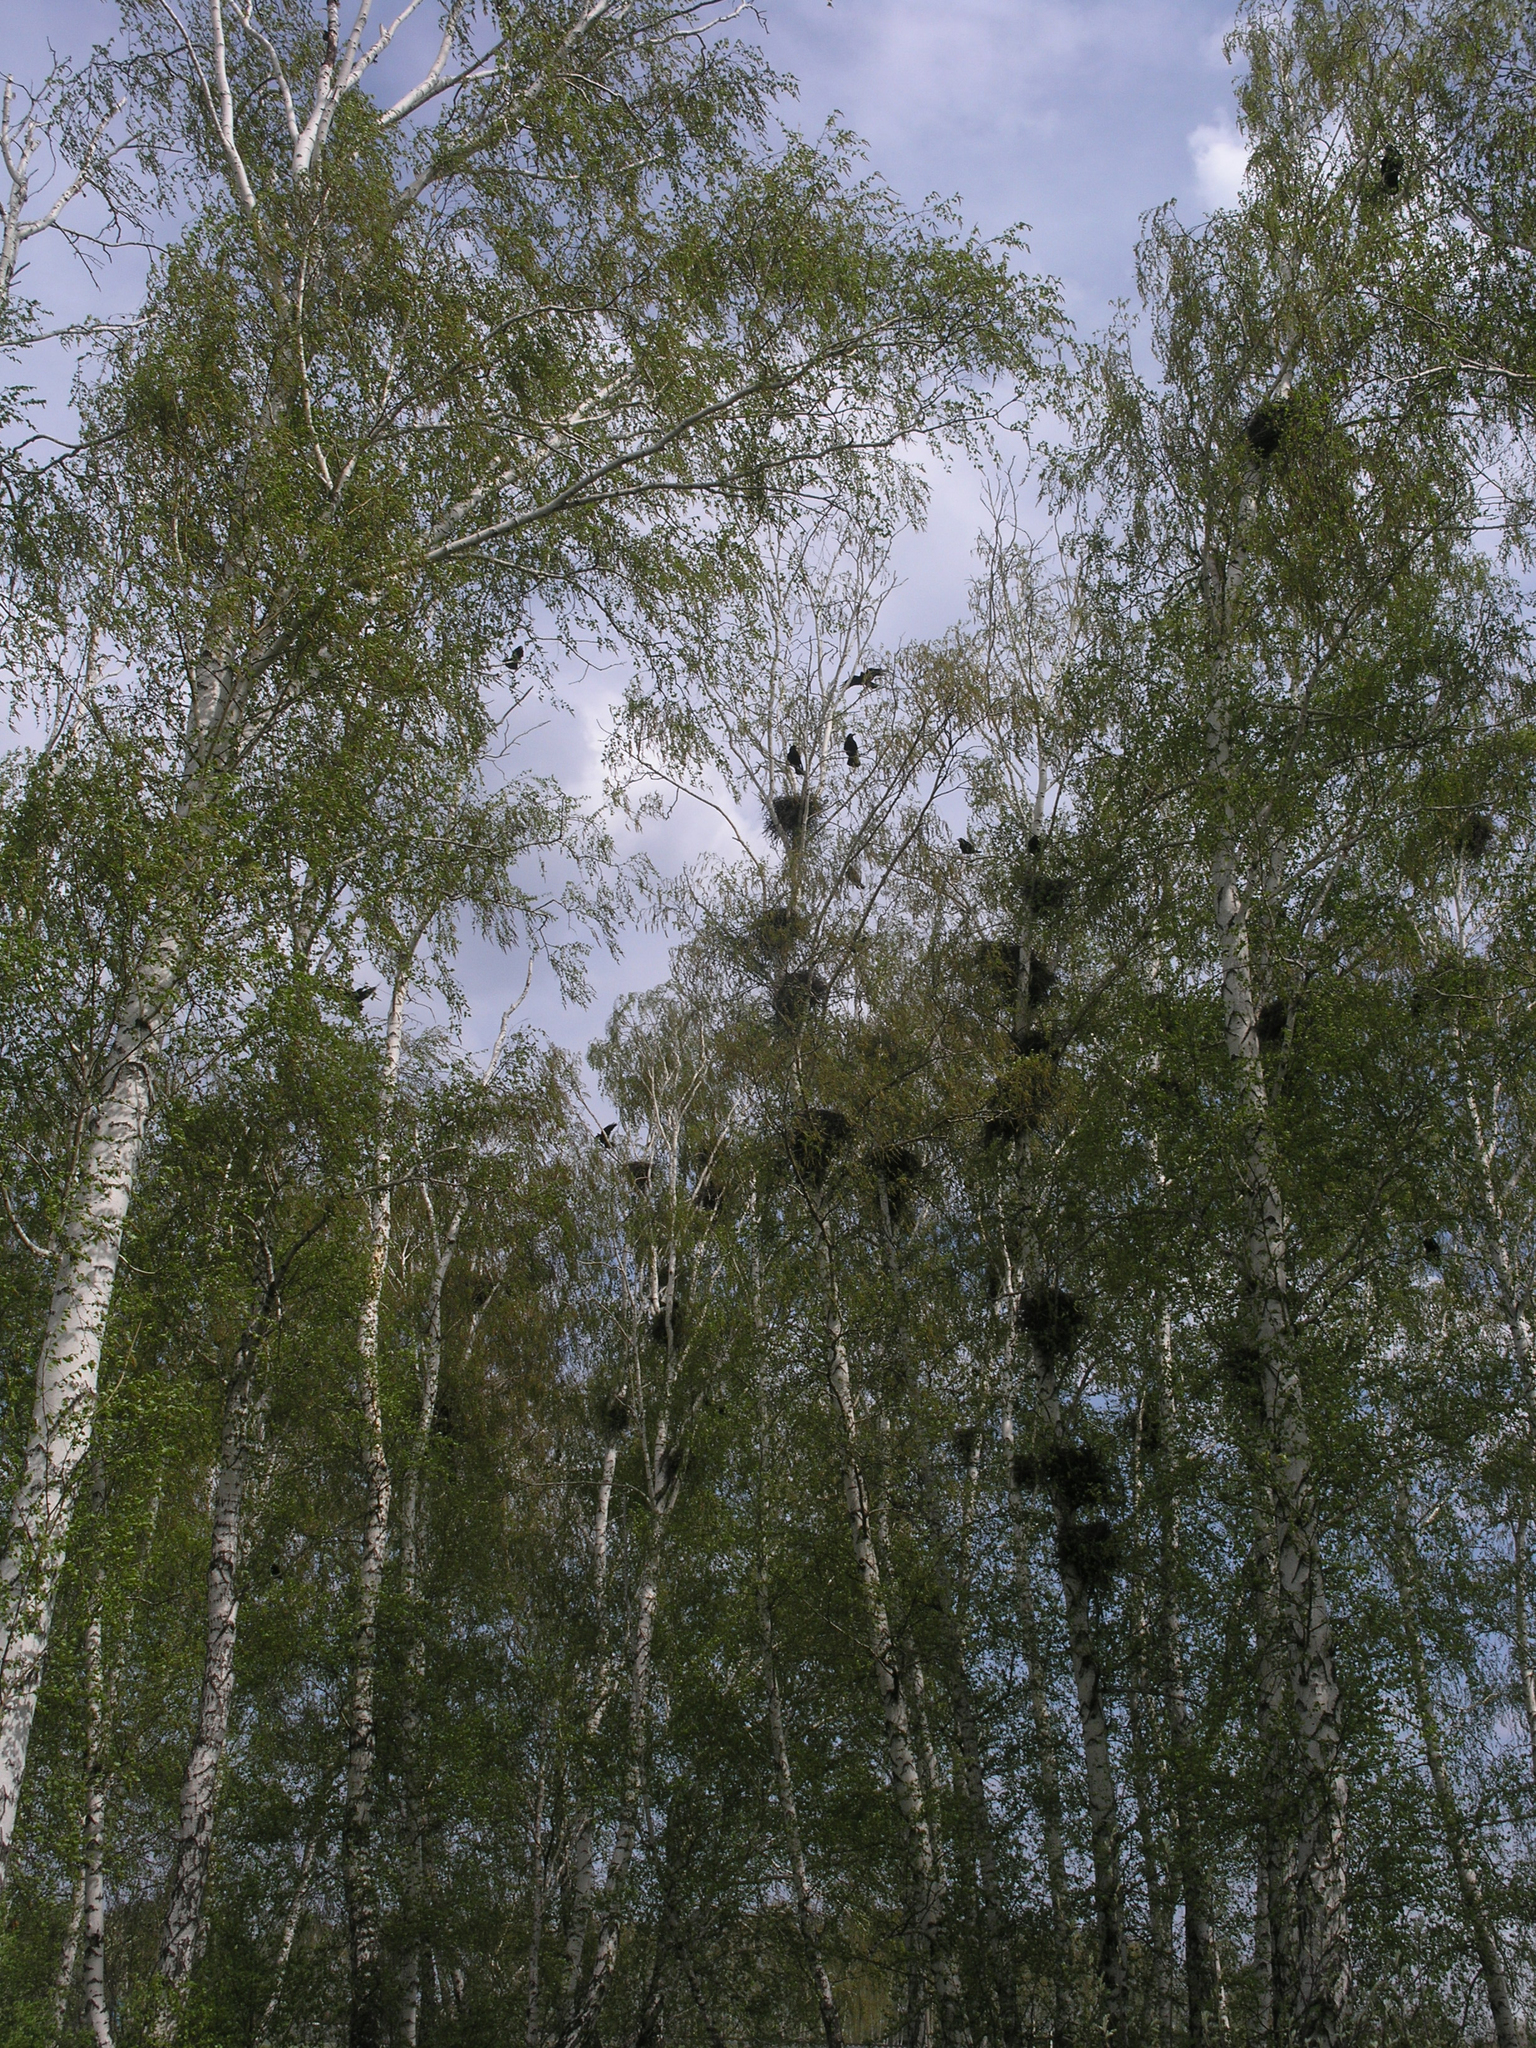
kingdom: Animalia
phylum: Chordata
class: Aves
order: Passeriformes
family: Corvidae
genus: Corvus
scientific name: Corvus frugilegus
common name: Rook
